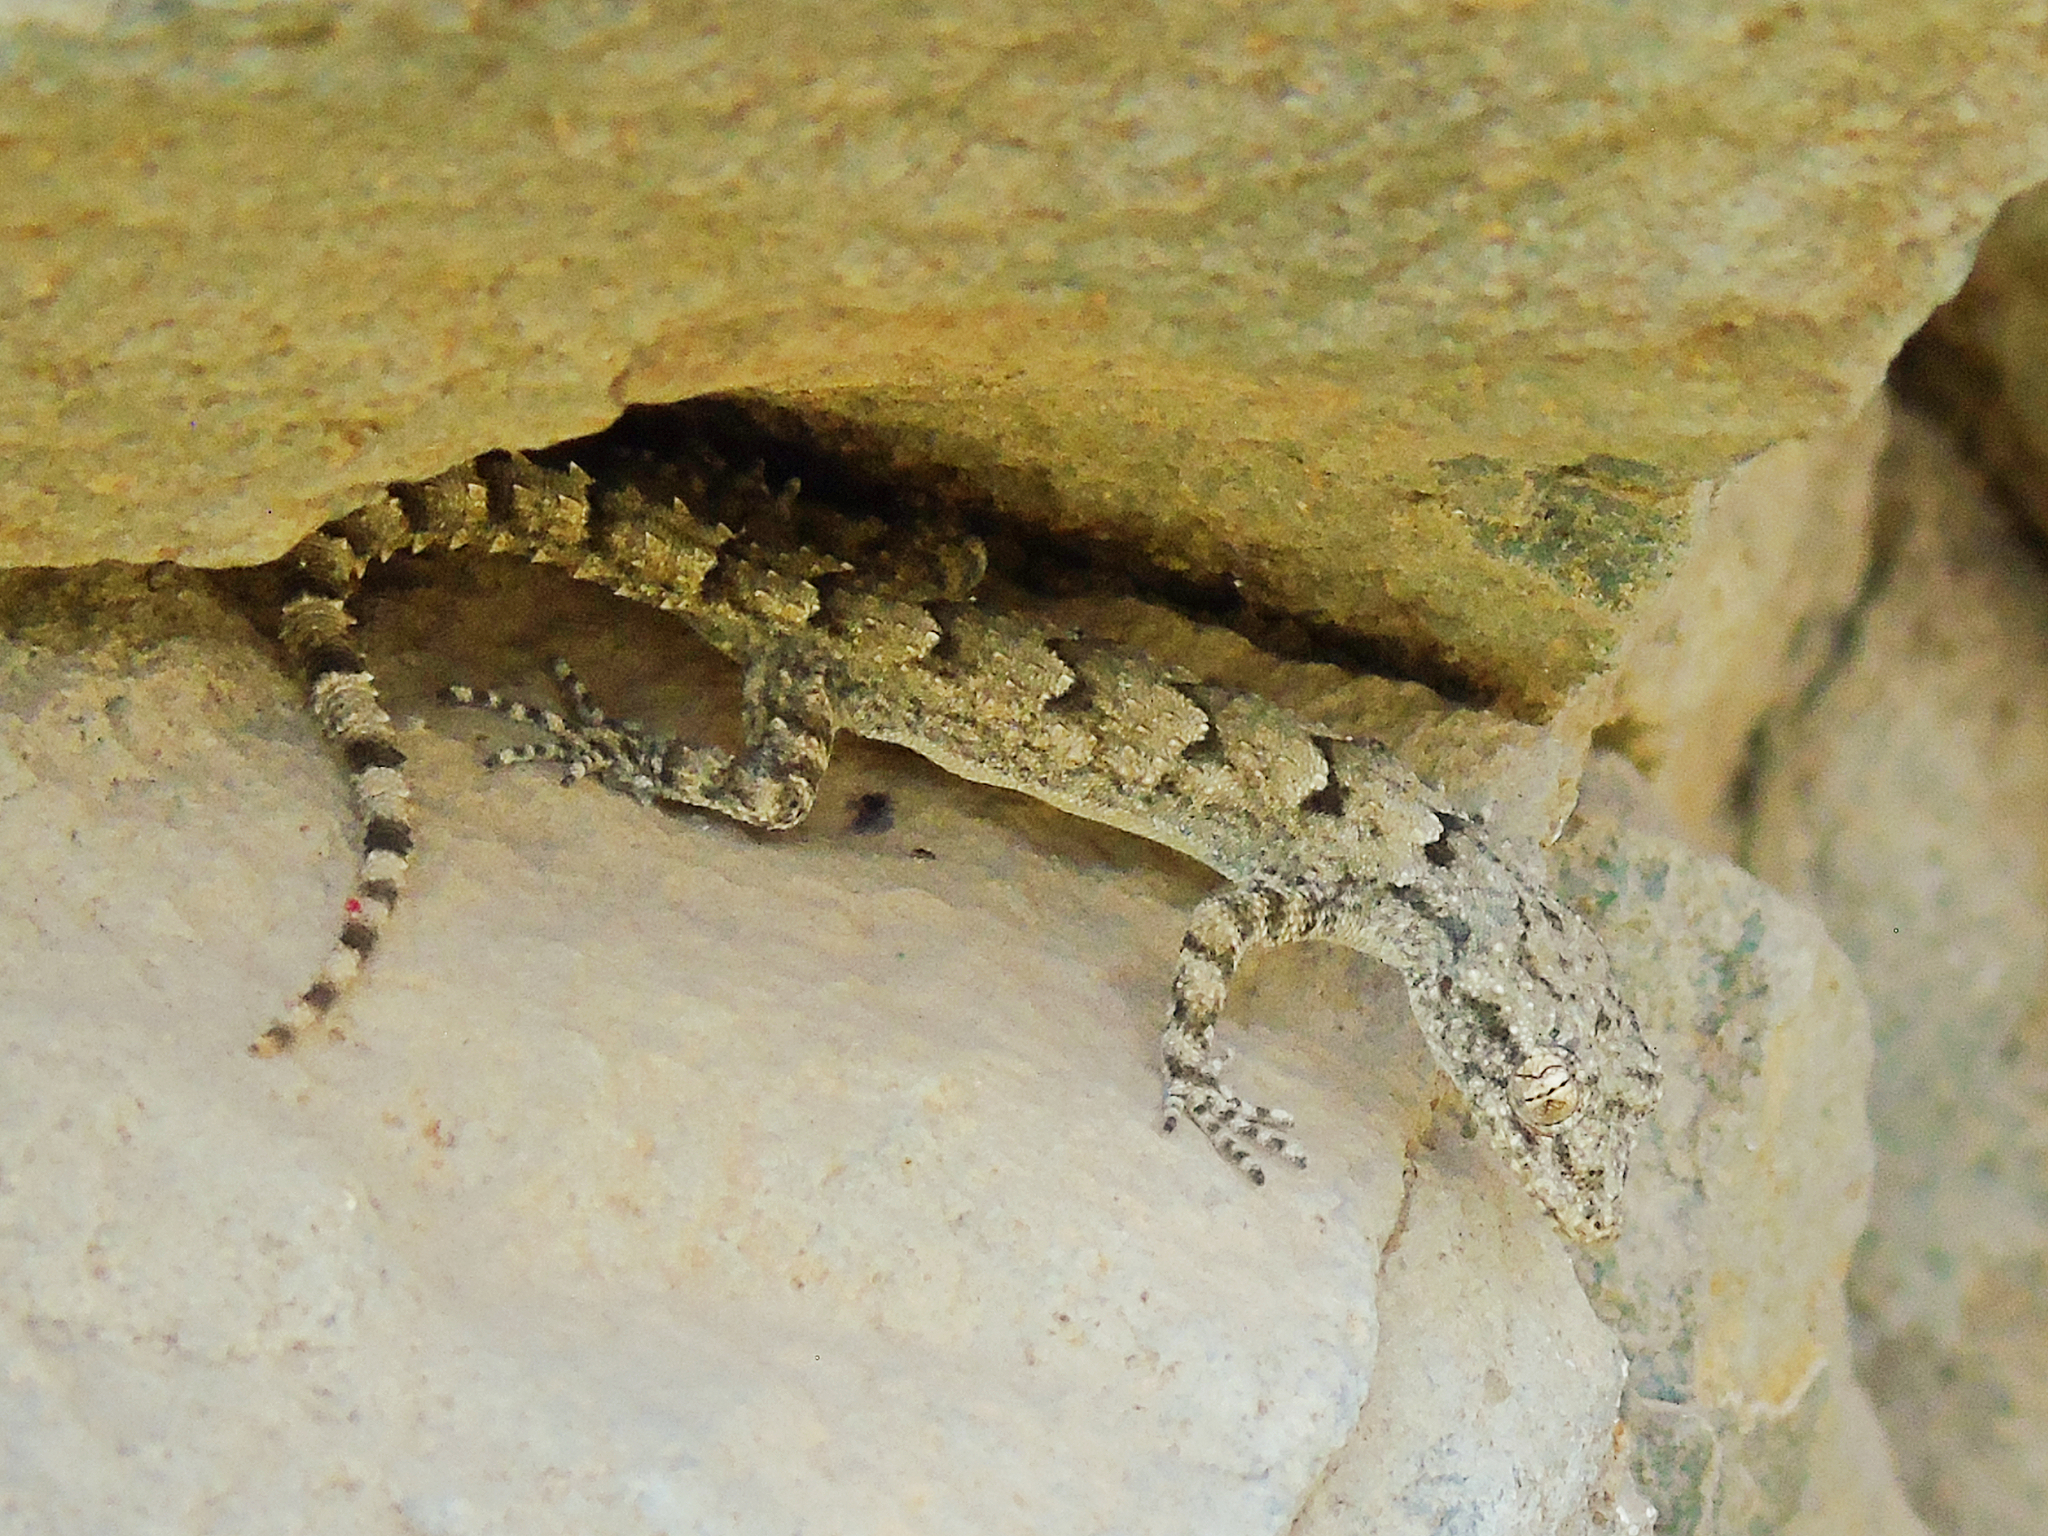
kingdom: Animalia
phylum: Chordata
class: Squamata
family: Gekkonidae
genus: Mediodactylus
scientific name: Mediodactylus heterocercus
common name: Asia minor thin-toed gecko
